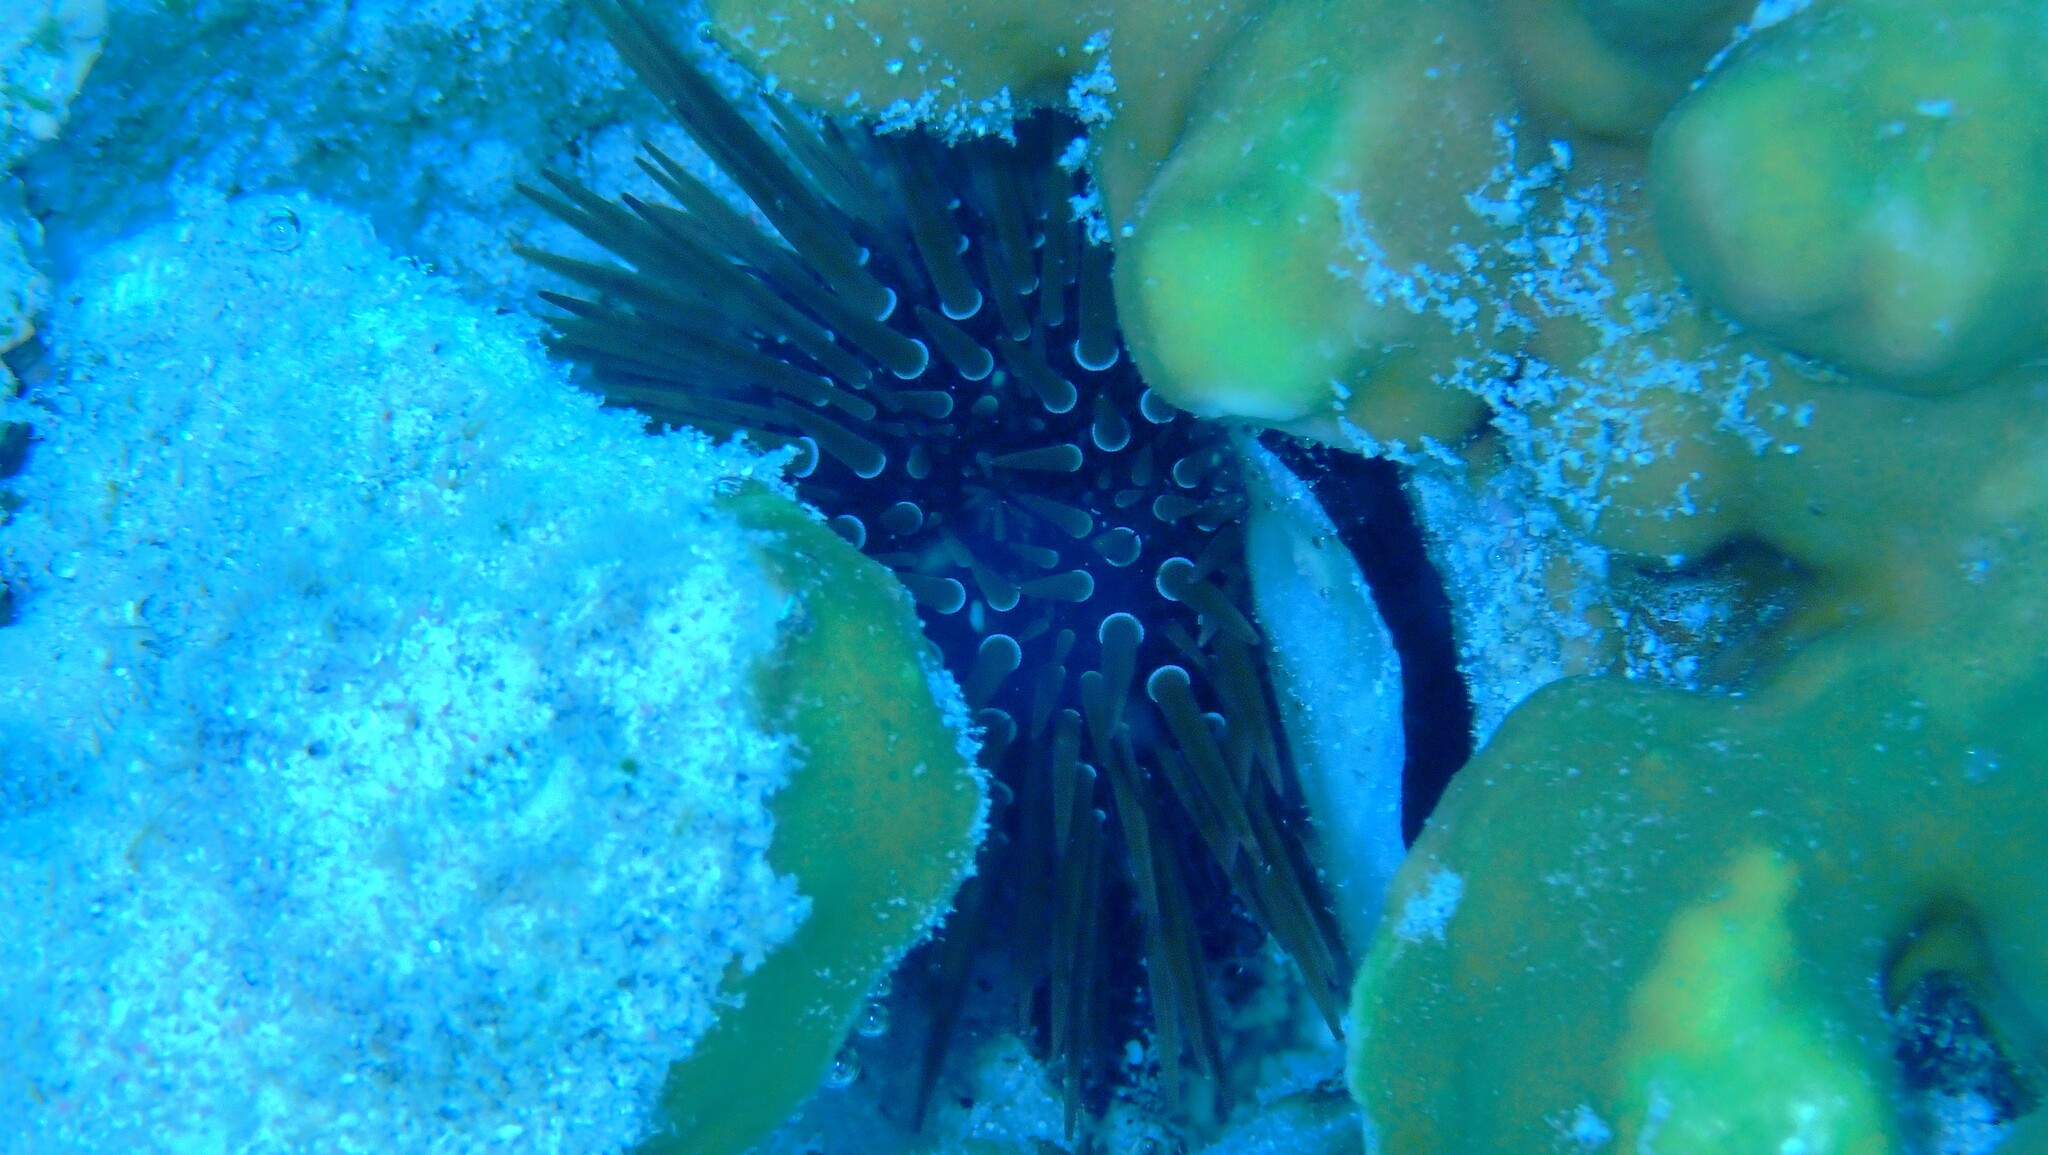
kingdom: Animalia
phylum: Echinodermata
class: Echinoidea
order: Camarodonta
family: Echinometridae
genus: Echinometra
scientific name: Echinometra mathaei
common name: Rock-boring urchin
